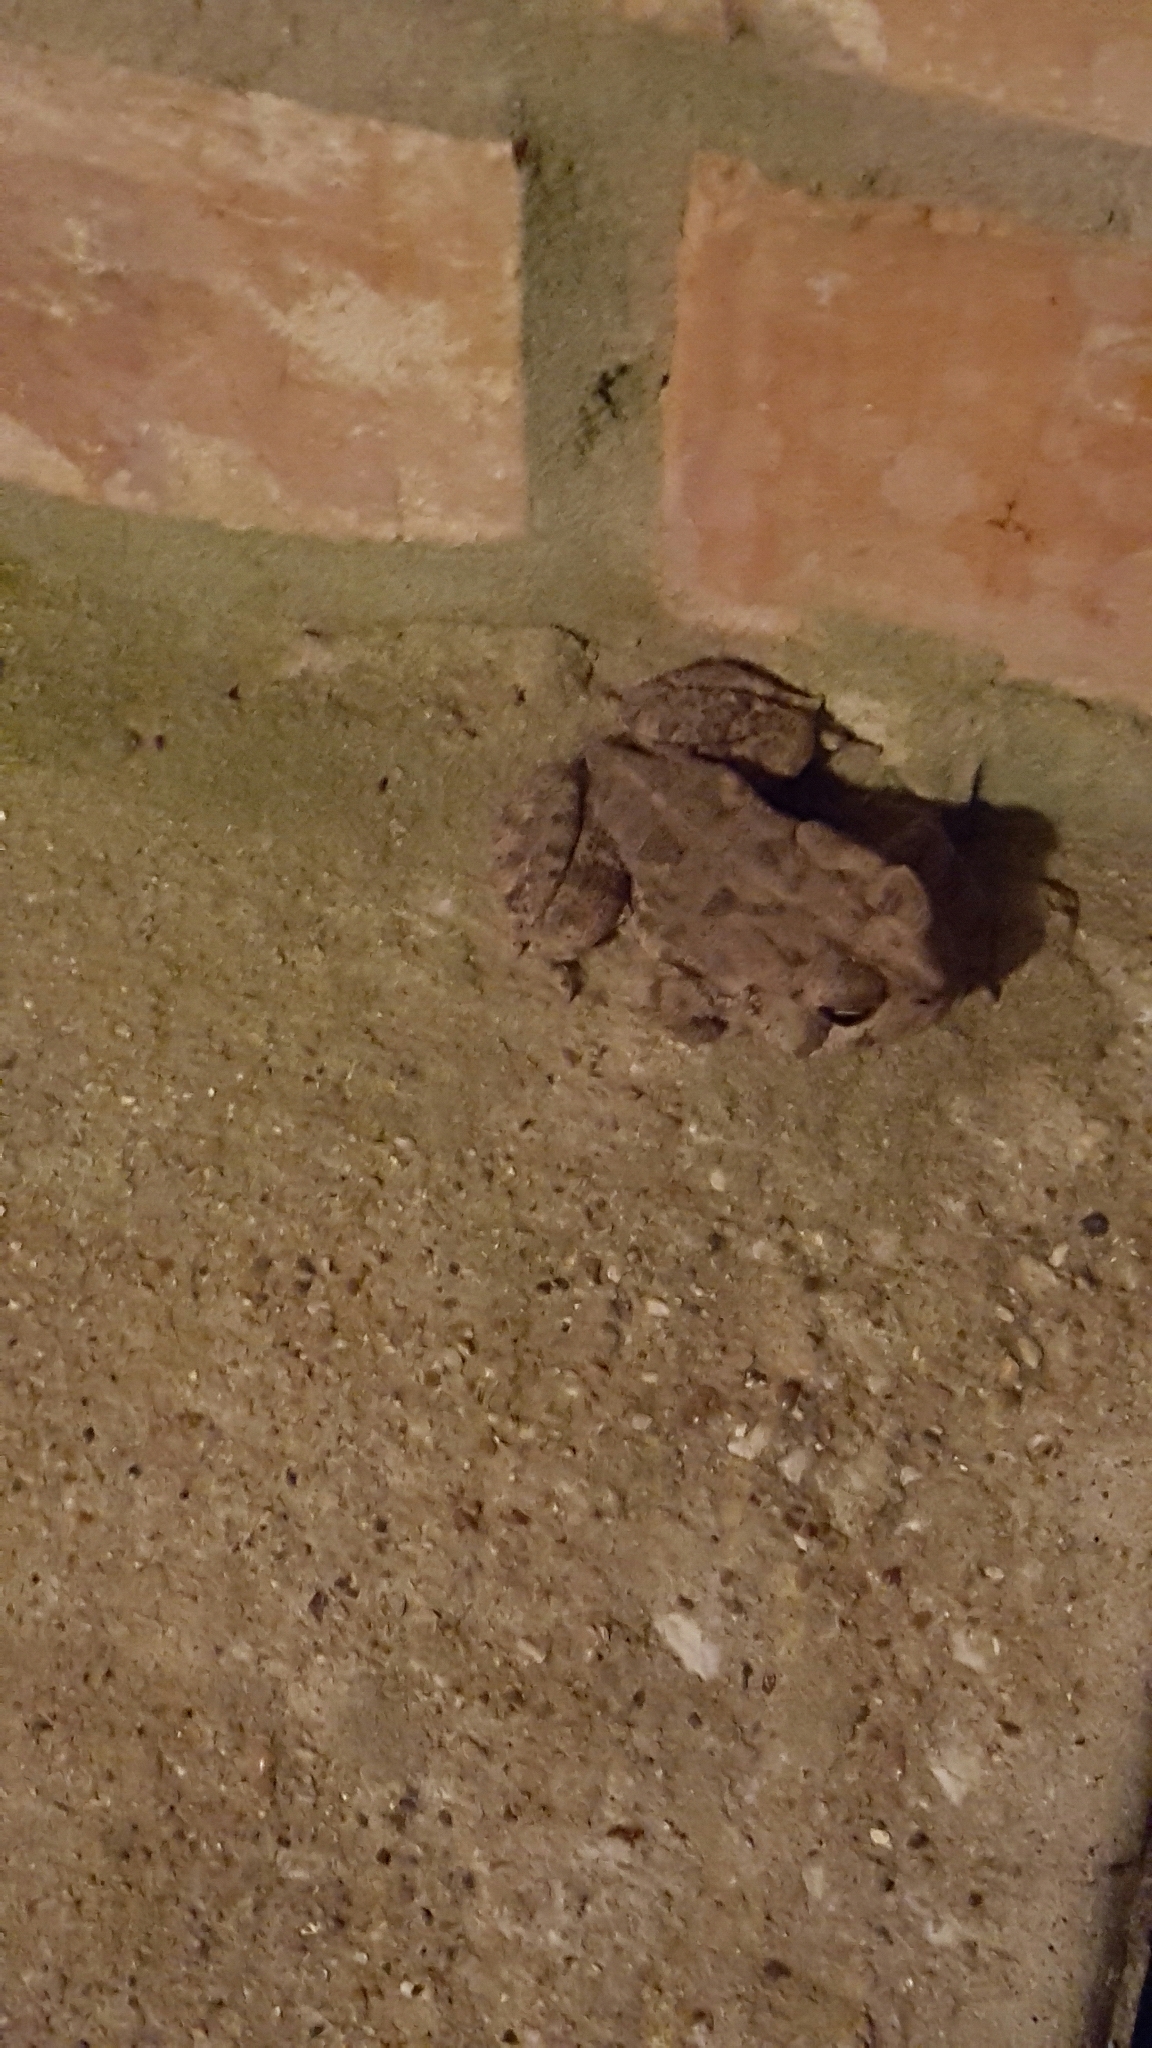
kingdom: Animalia
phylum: Chordata
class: Amphibia
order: Anura
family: Bufonidae
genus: Anaxyrus
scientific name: Anaxyrus fowleri
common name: Fowler's toad
